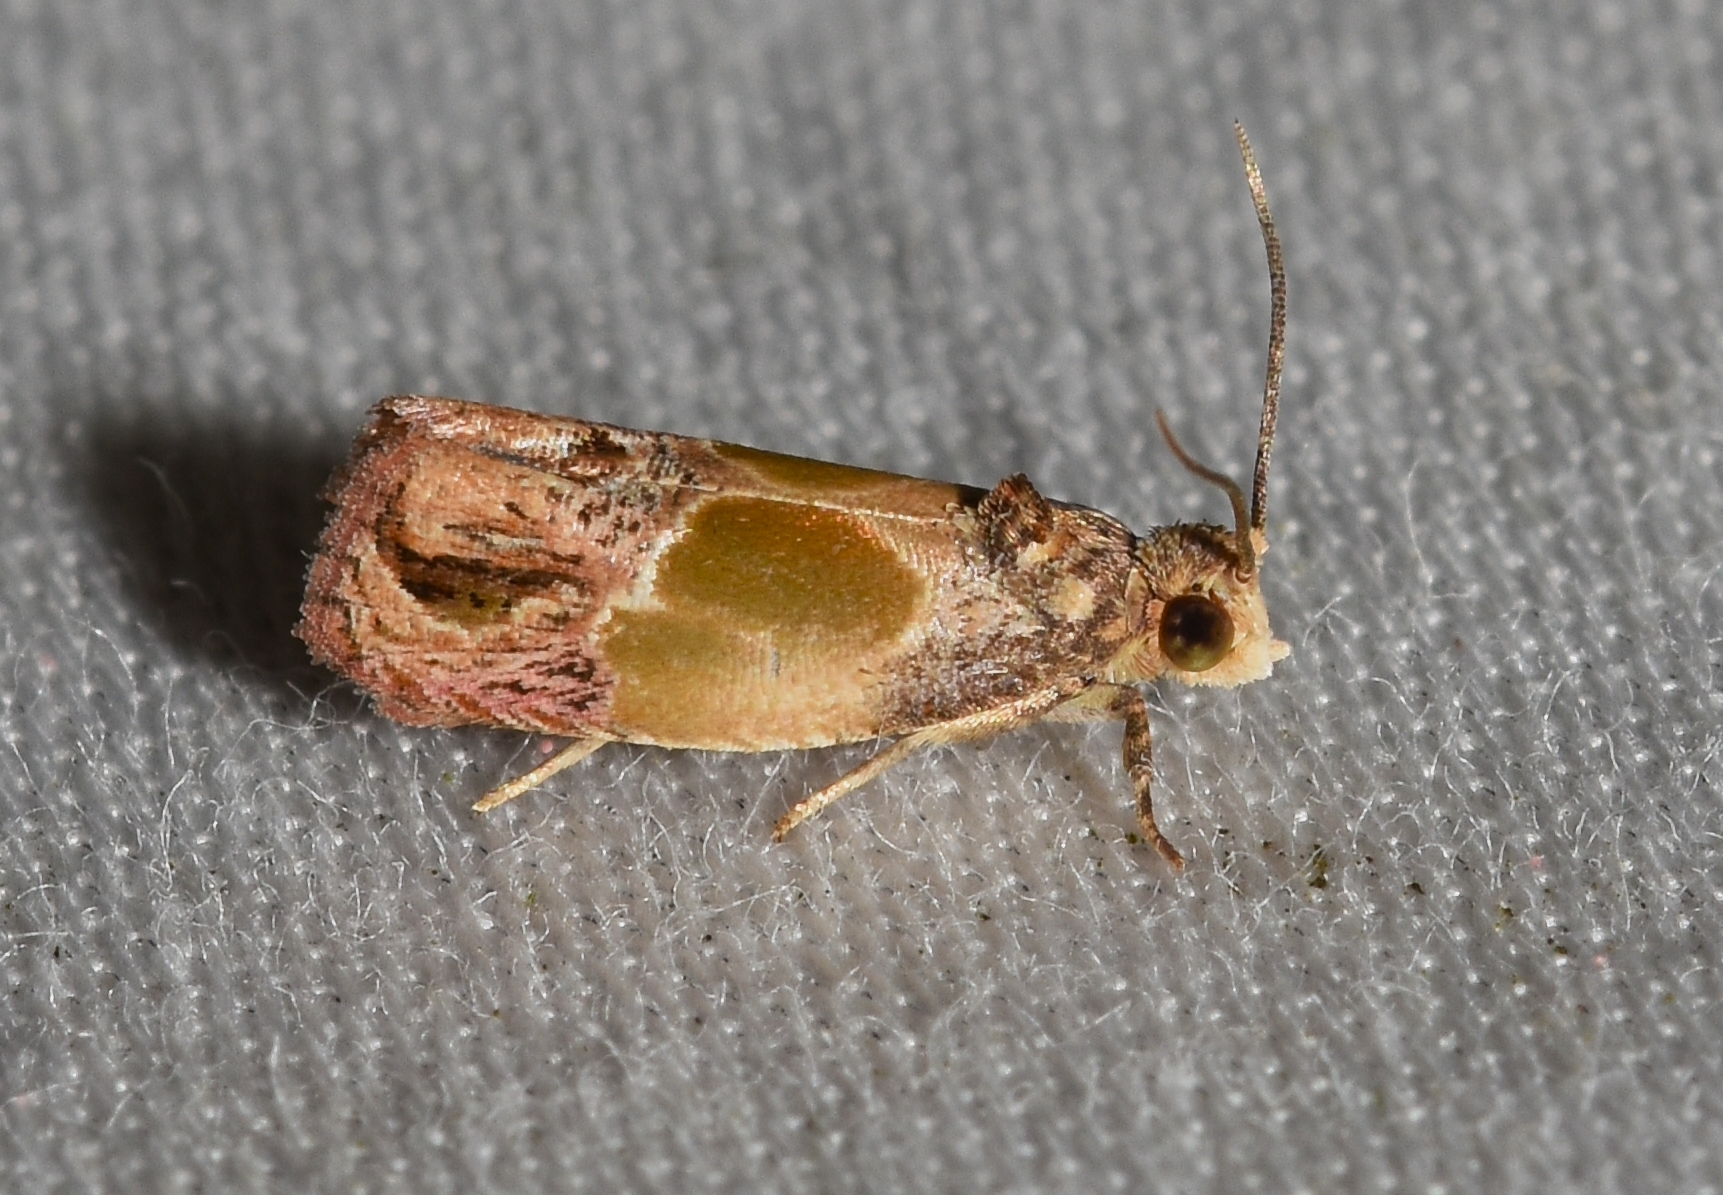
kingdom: Animalia
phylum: Arthropoda
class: Insecta
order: Lepidoptera
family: Tortricidae
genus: Eumarozia
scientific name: Eumarozia malachitana
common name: Sculptured moth
